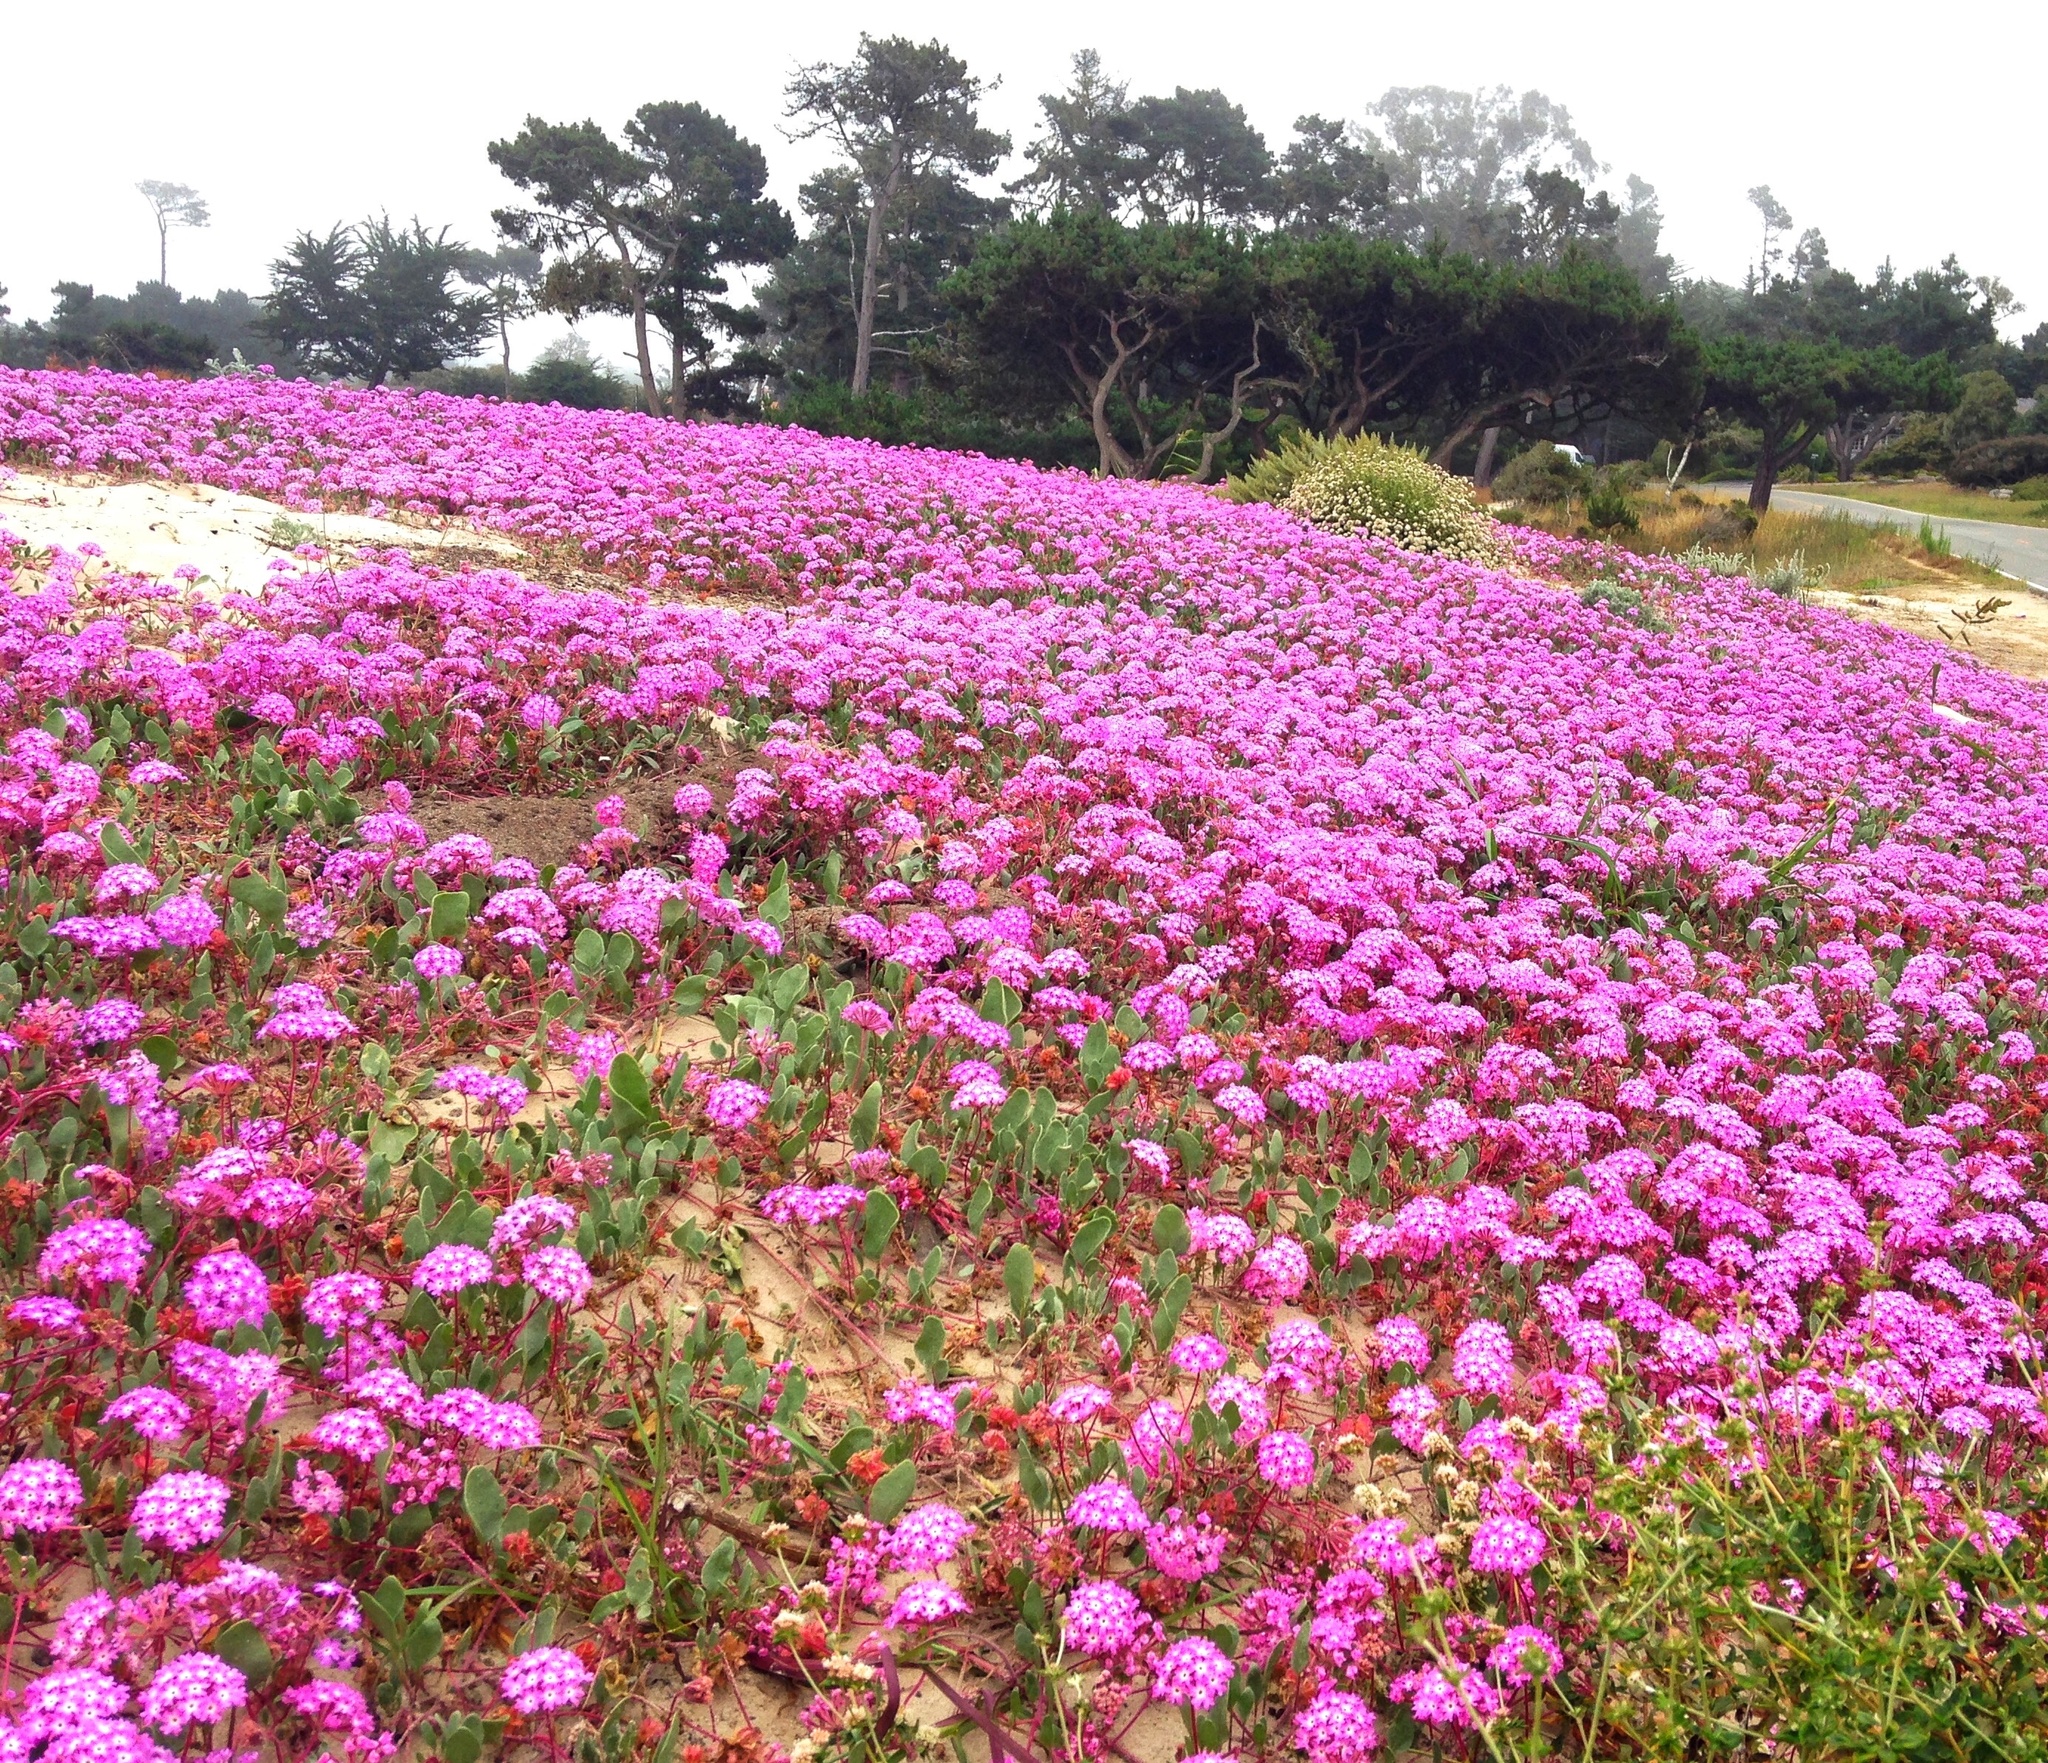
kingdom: Plantae
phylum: Tracheophyta
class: Magnoliopsida
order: Caryophyllales
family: Nyctaginaceae
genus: Abronia
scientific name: Abronia umbellata
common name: Sand-verbena
